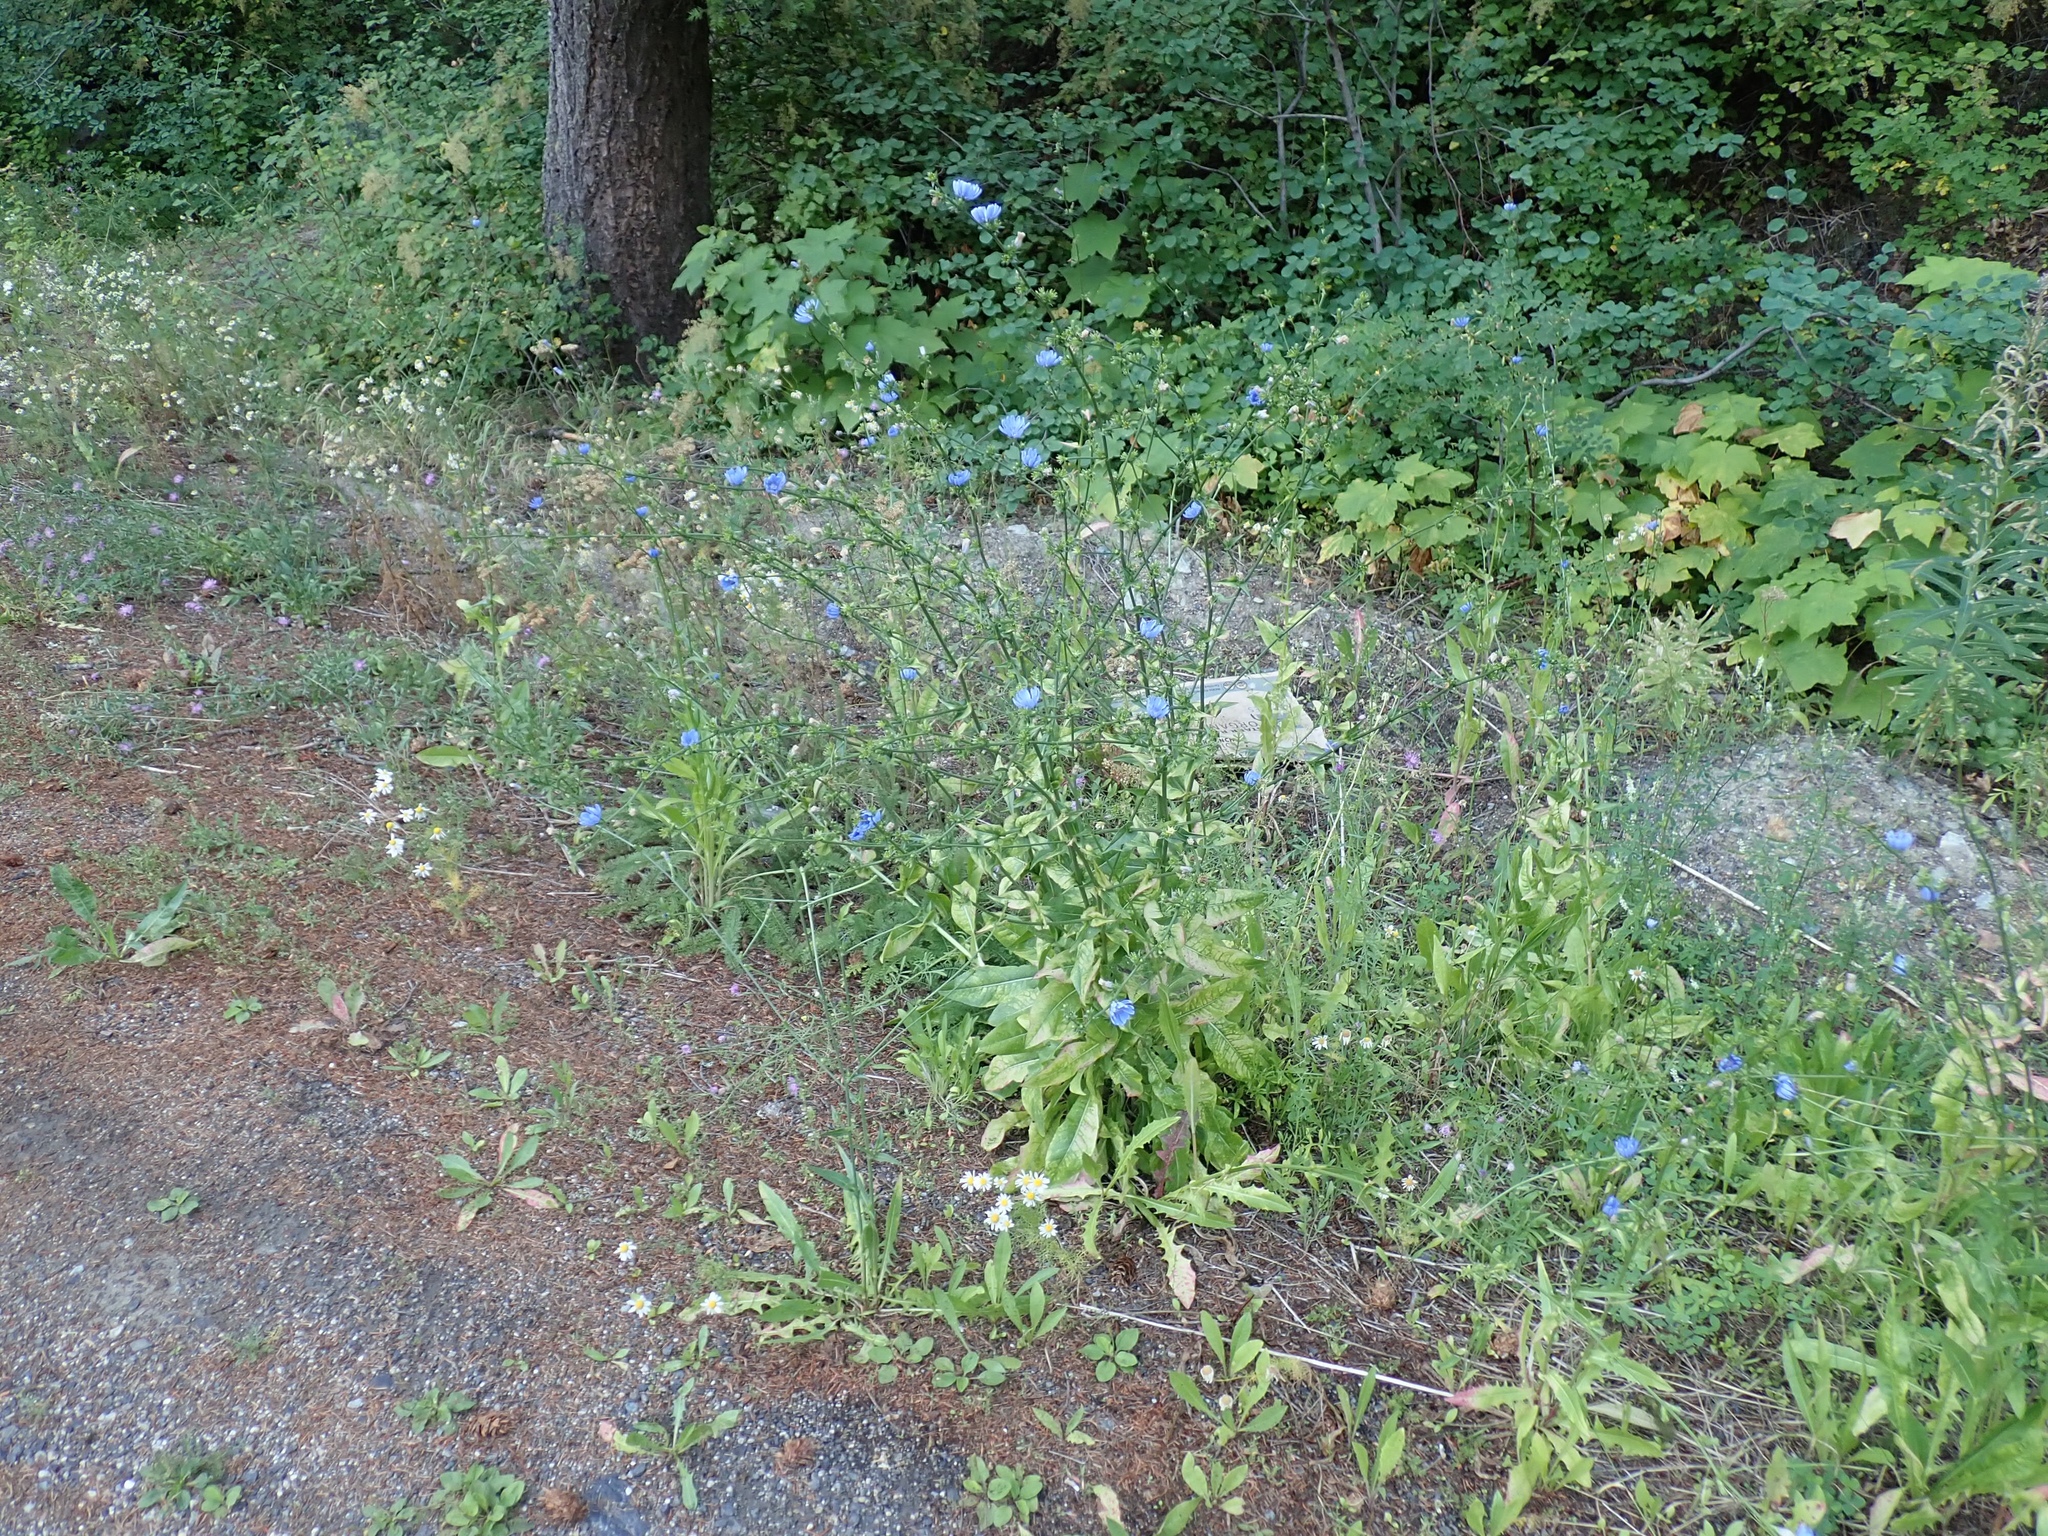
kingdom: Plantae
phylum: Tracheophyta
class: Magnoliopsida
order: Asterales
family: Asteraceae
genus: Cichorium
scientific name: Cichorium intybus
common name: Chicory
